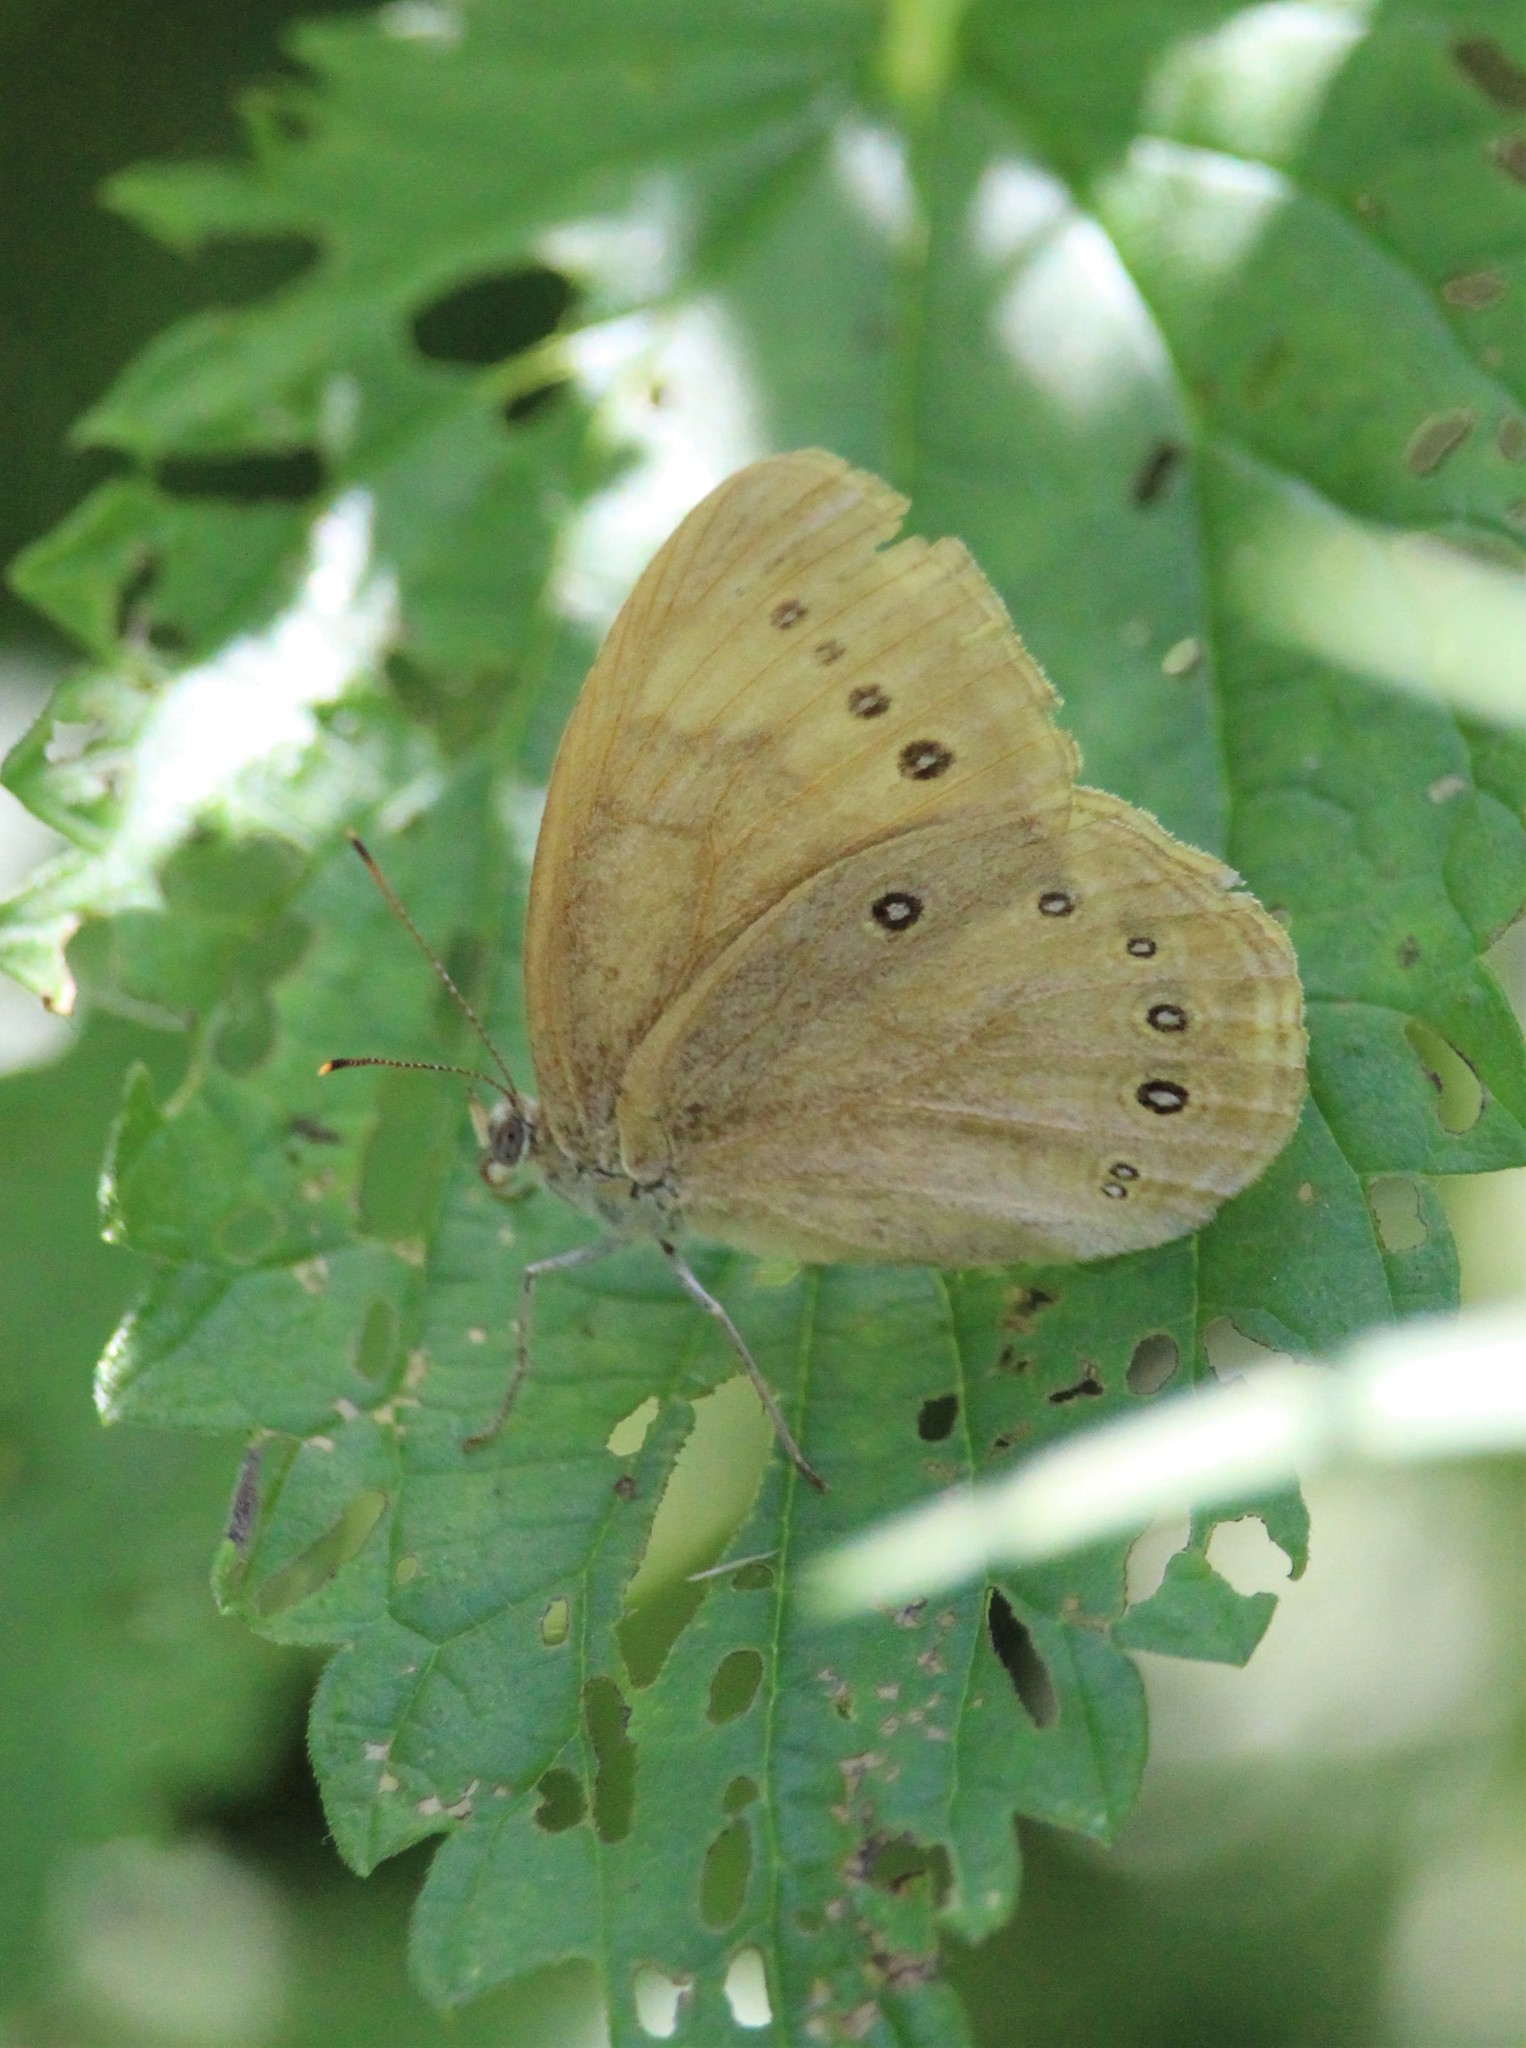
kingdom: Animalia
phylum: Arthropoda
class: Insecta
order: Lepidoptera
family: Nymphalidae
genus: Lethe
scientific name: Lethe eurydice
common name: Eyed brown
